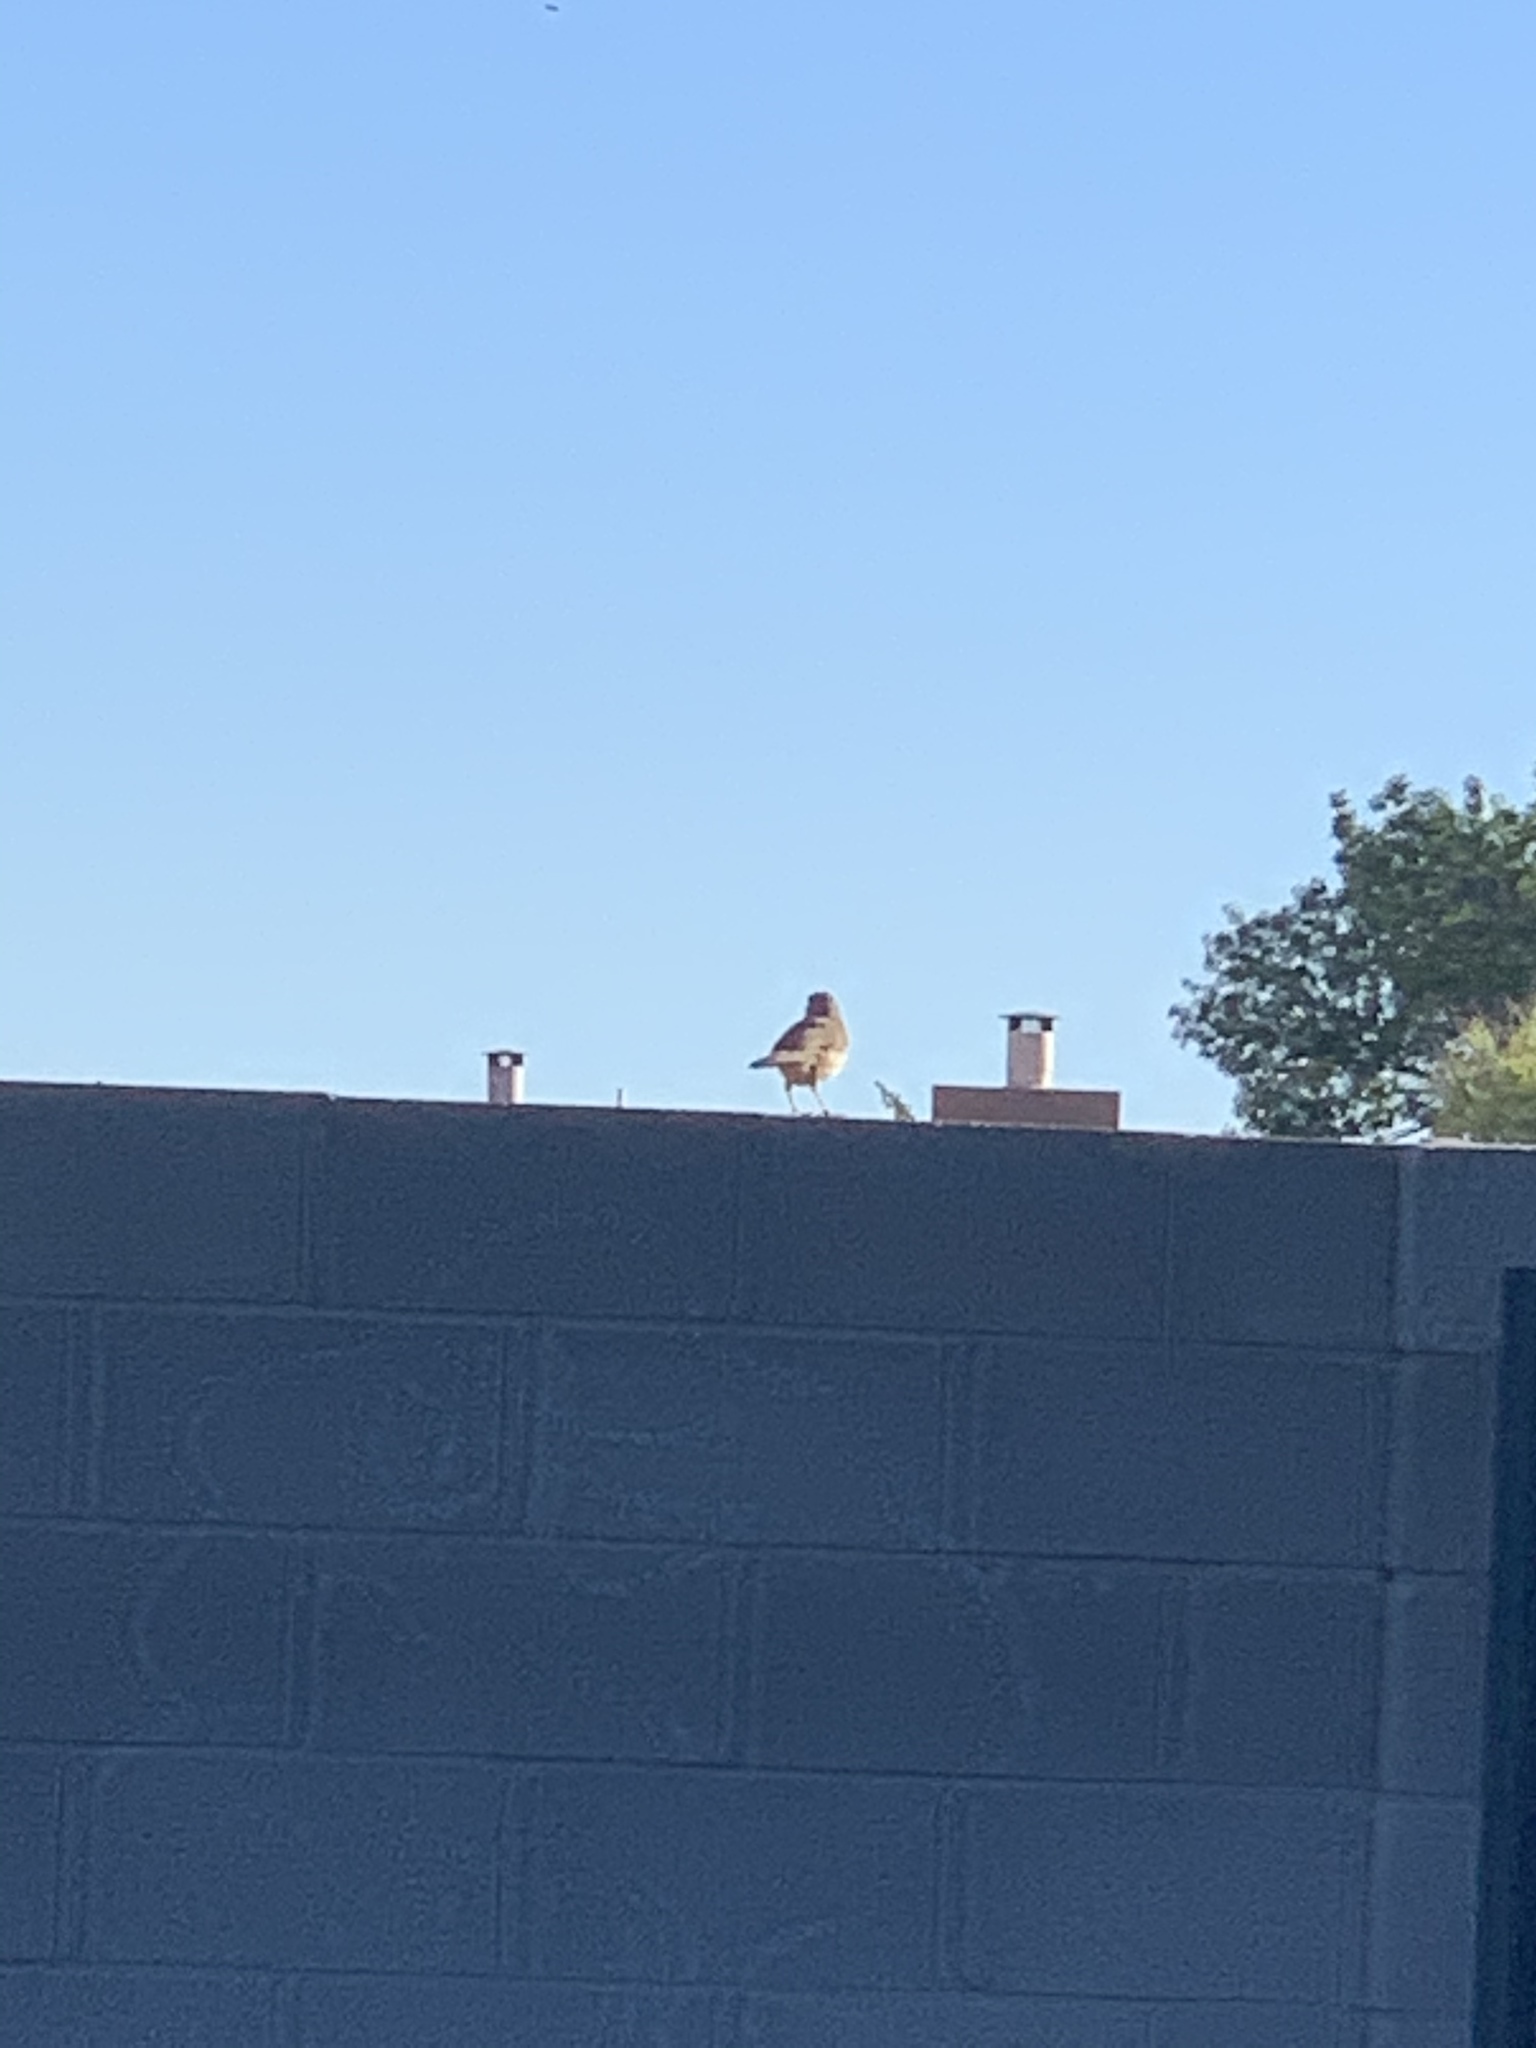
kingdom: Animalia
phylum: Chordata
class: Aves
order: Passeriformes
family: Mimidae
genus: Toxostoma
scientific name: Toxostoma curvirostre
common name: Curve-billed thrasher
